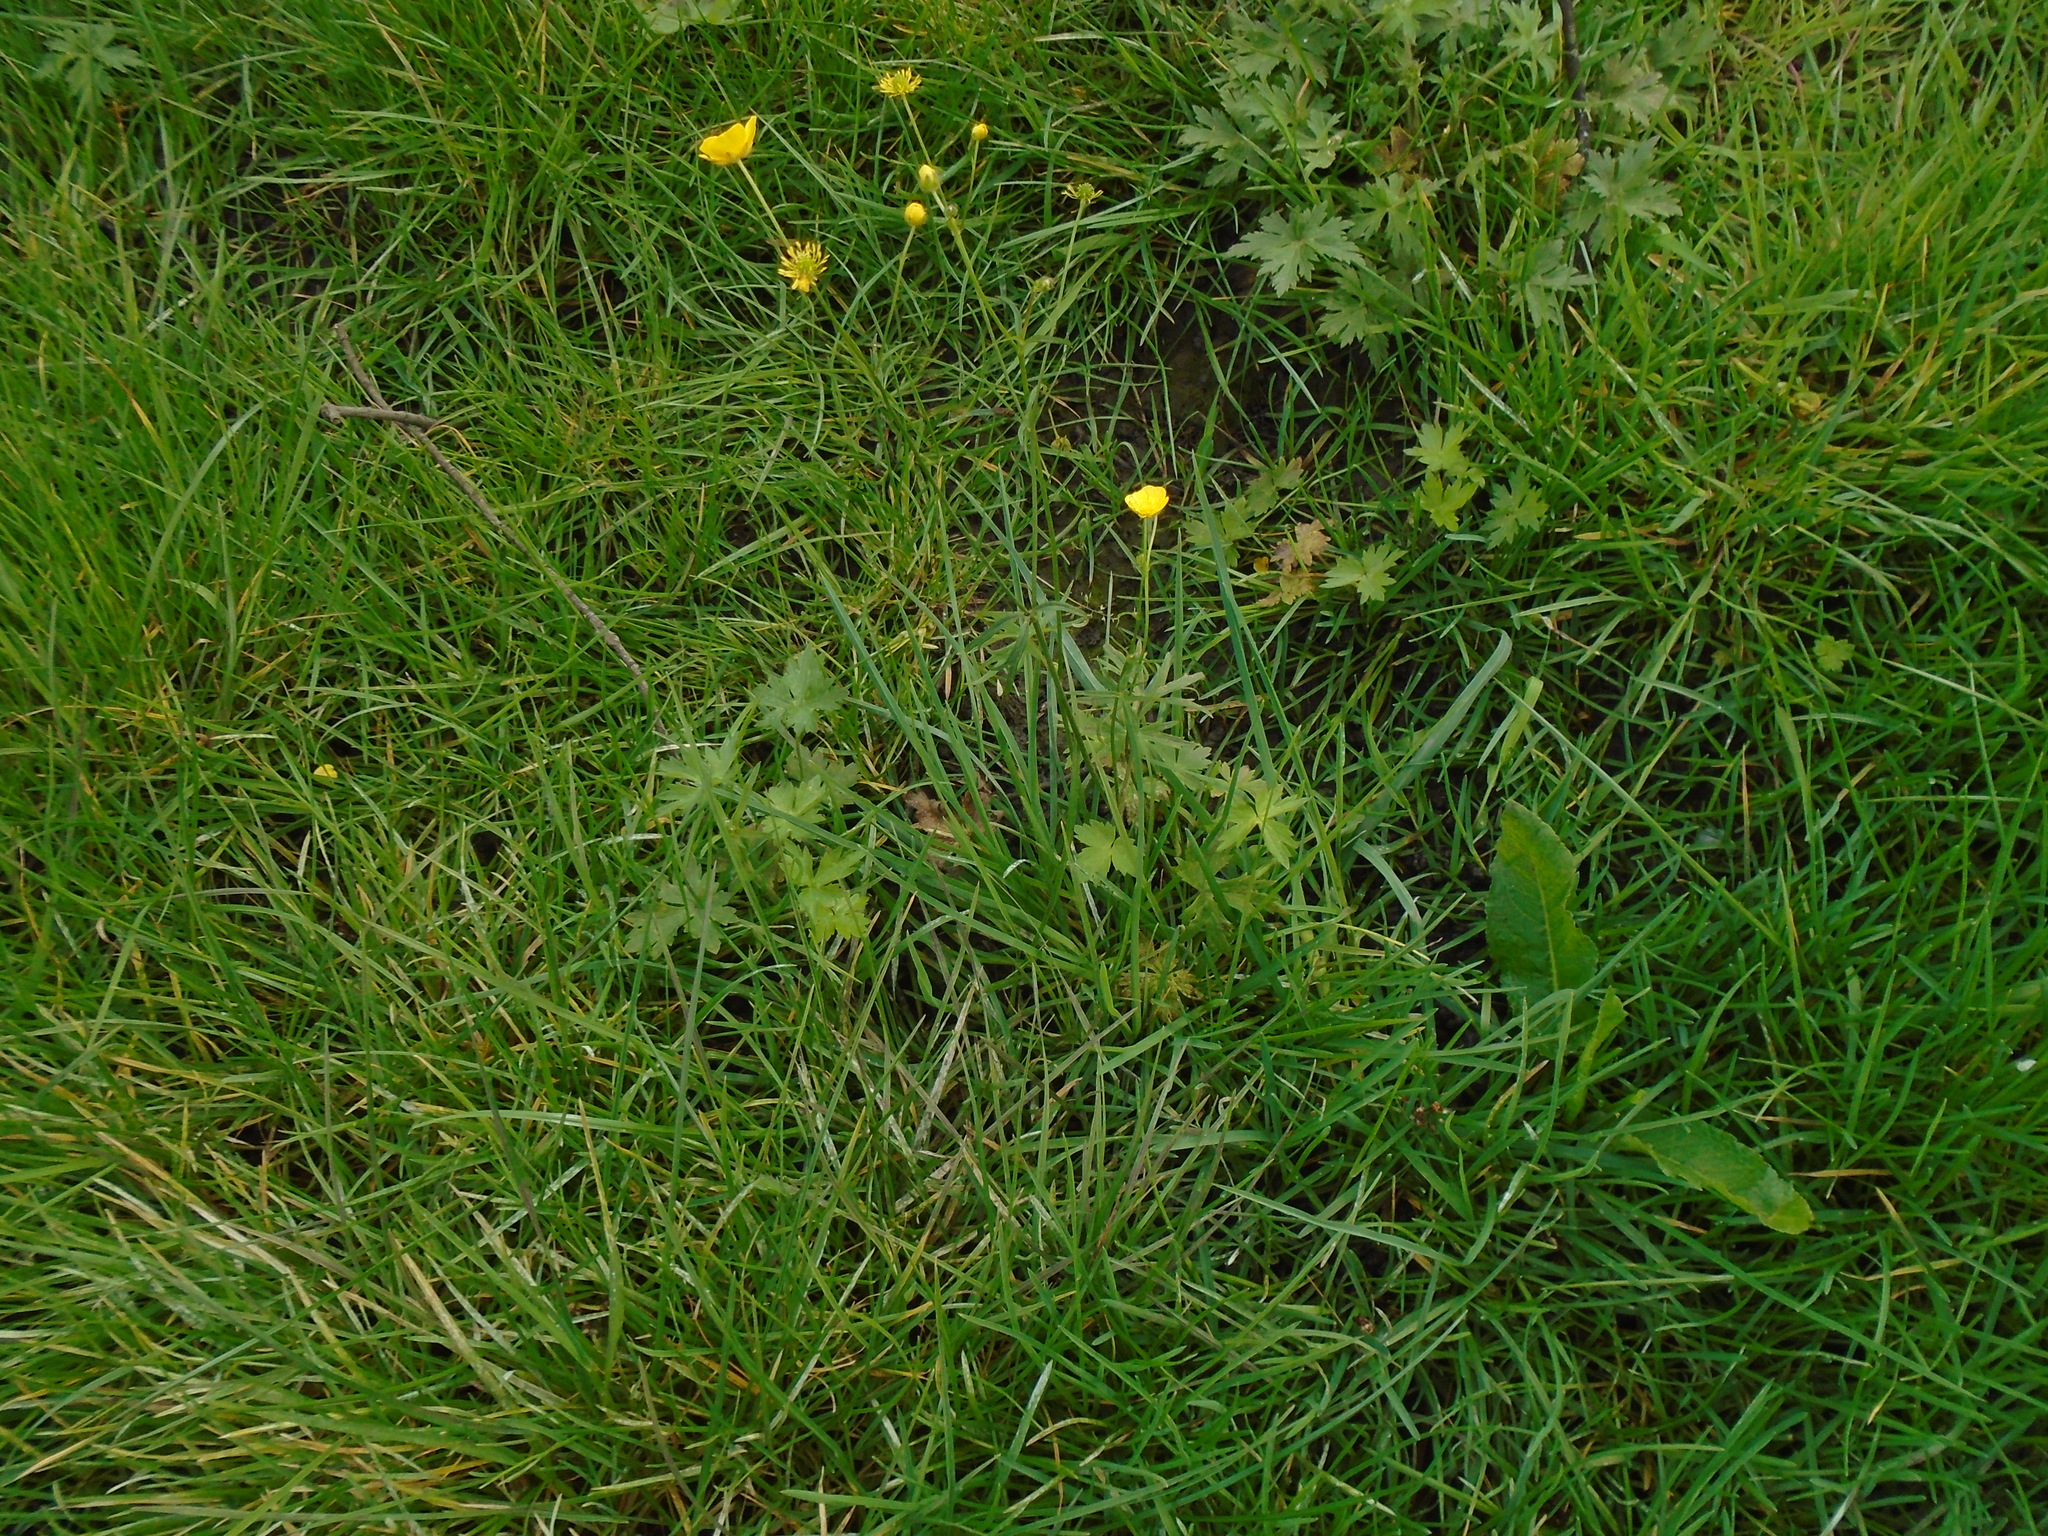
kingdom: Plantae
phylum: Tracheophyta
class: Magnoliopsida
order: Ranunculales
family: Ranunculaceae
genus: Ranunculus
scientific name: Ranunculus acris
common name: Meadow buttercup
